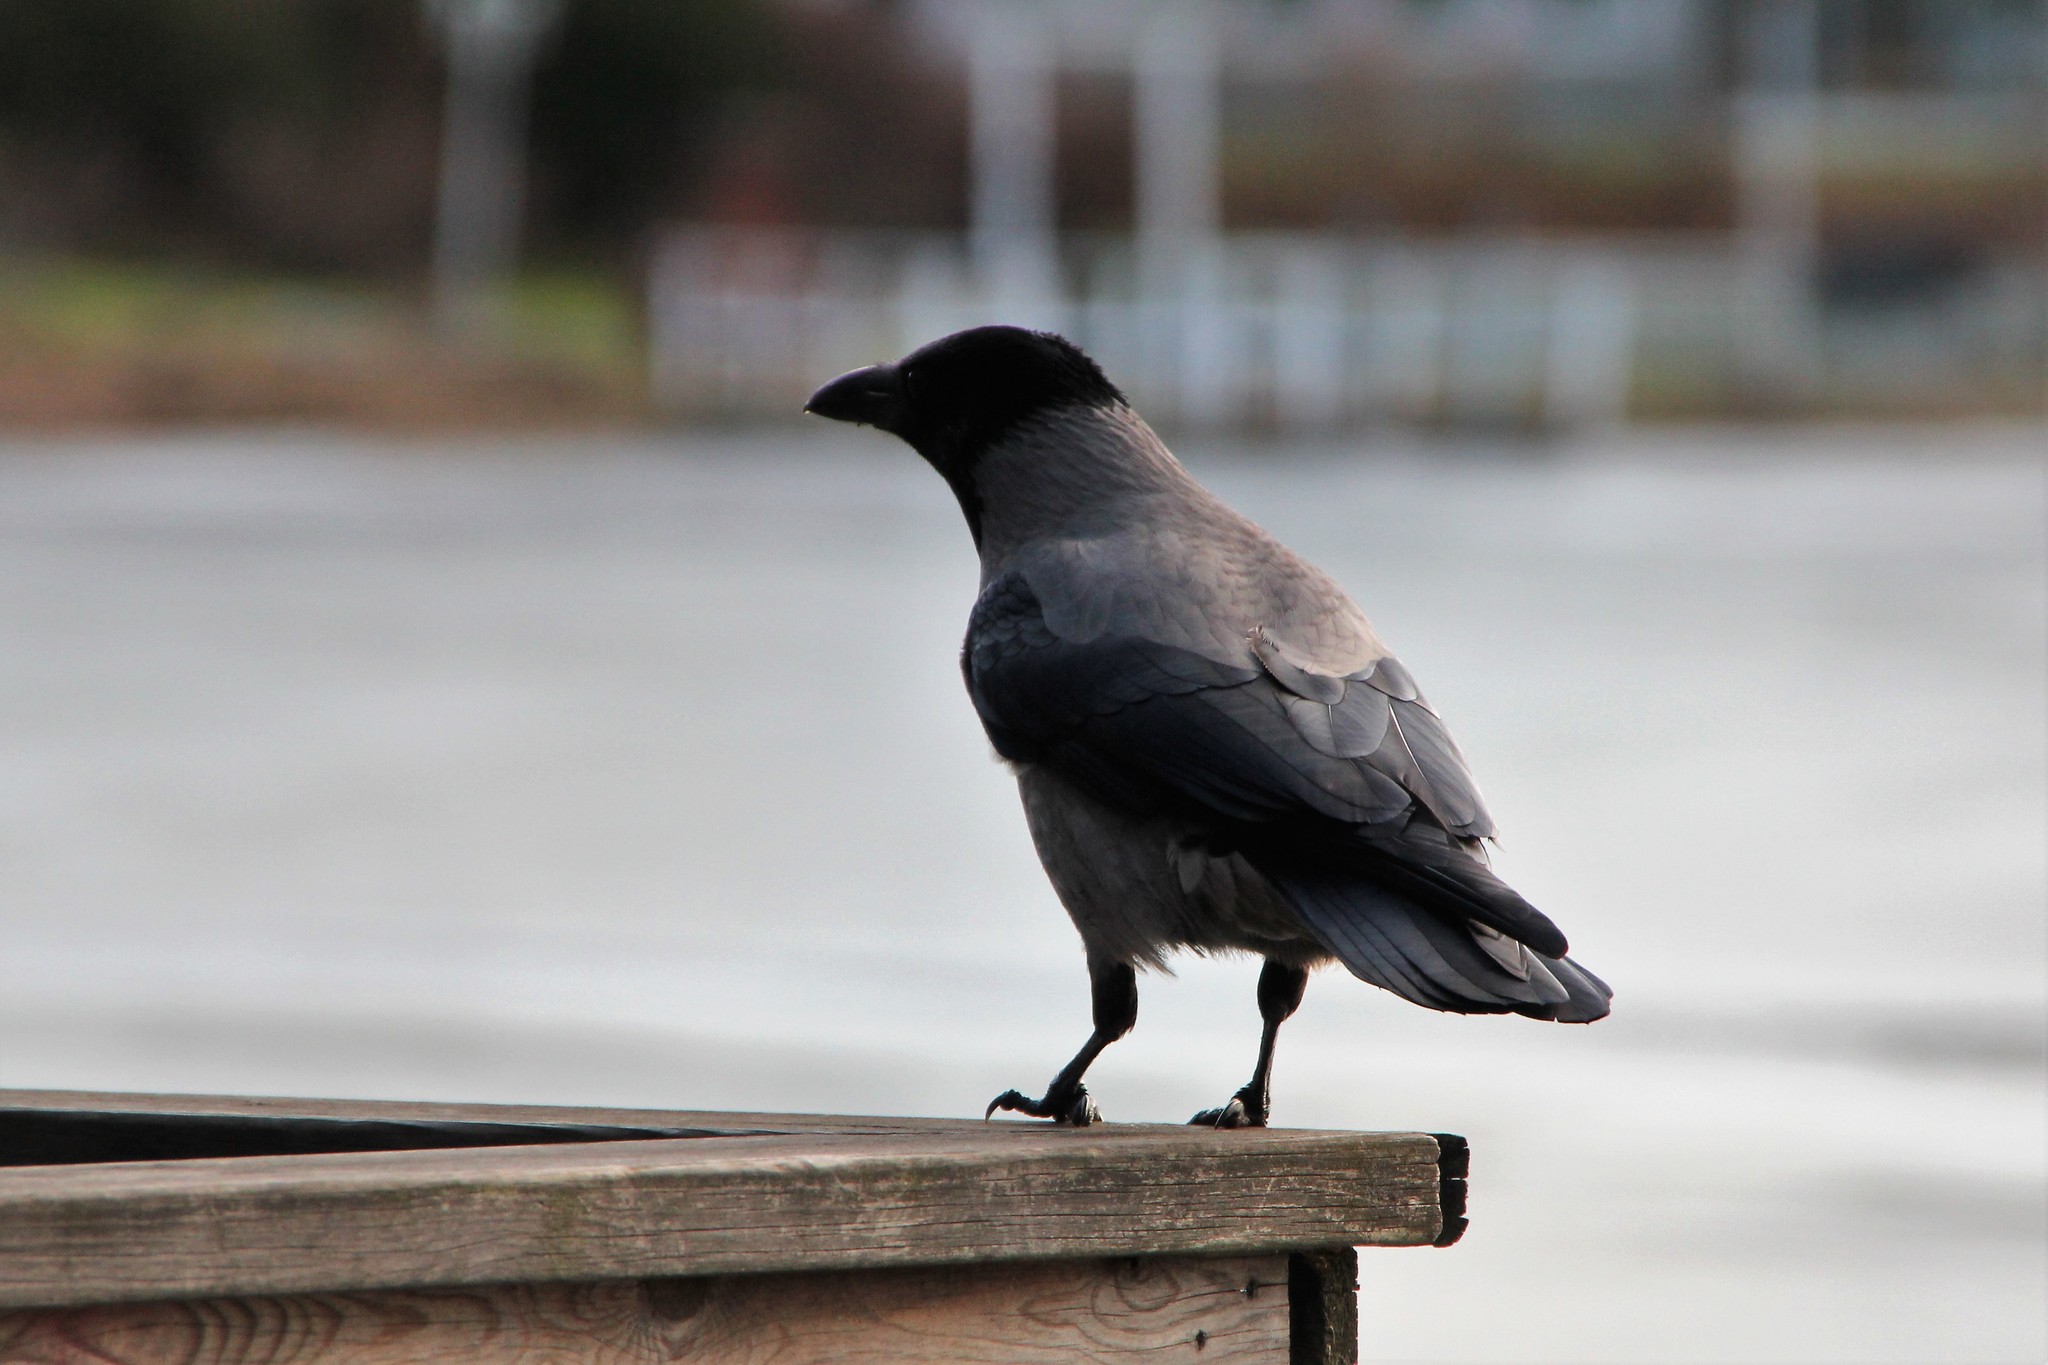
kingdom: Animalia
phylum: Chordata
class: Aves
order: Passeriformes
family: Corvidae
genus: Corvus
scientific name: Corvus cornix
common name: Hooded crow
